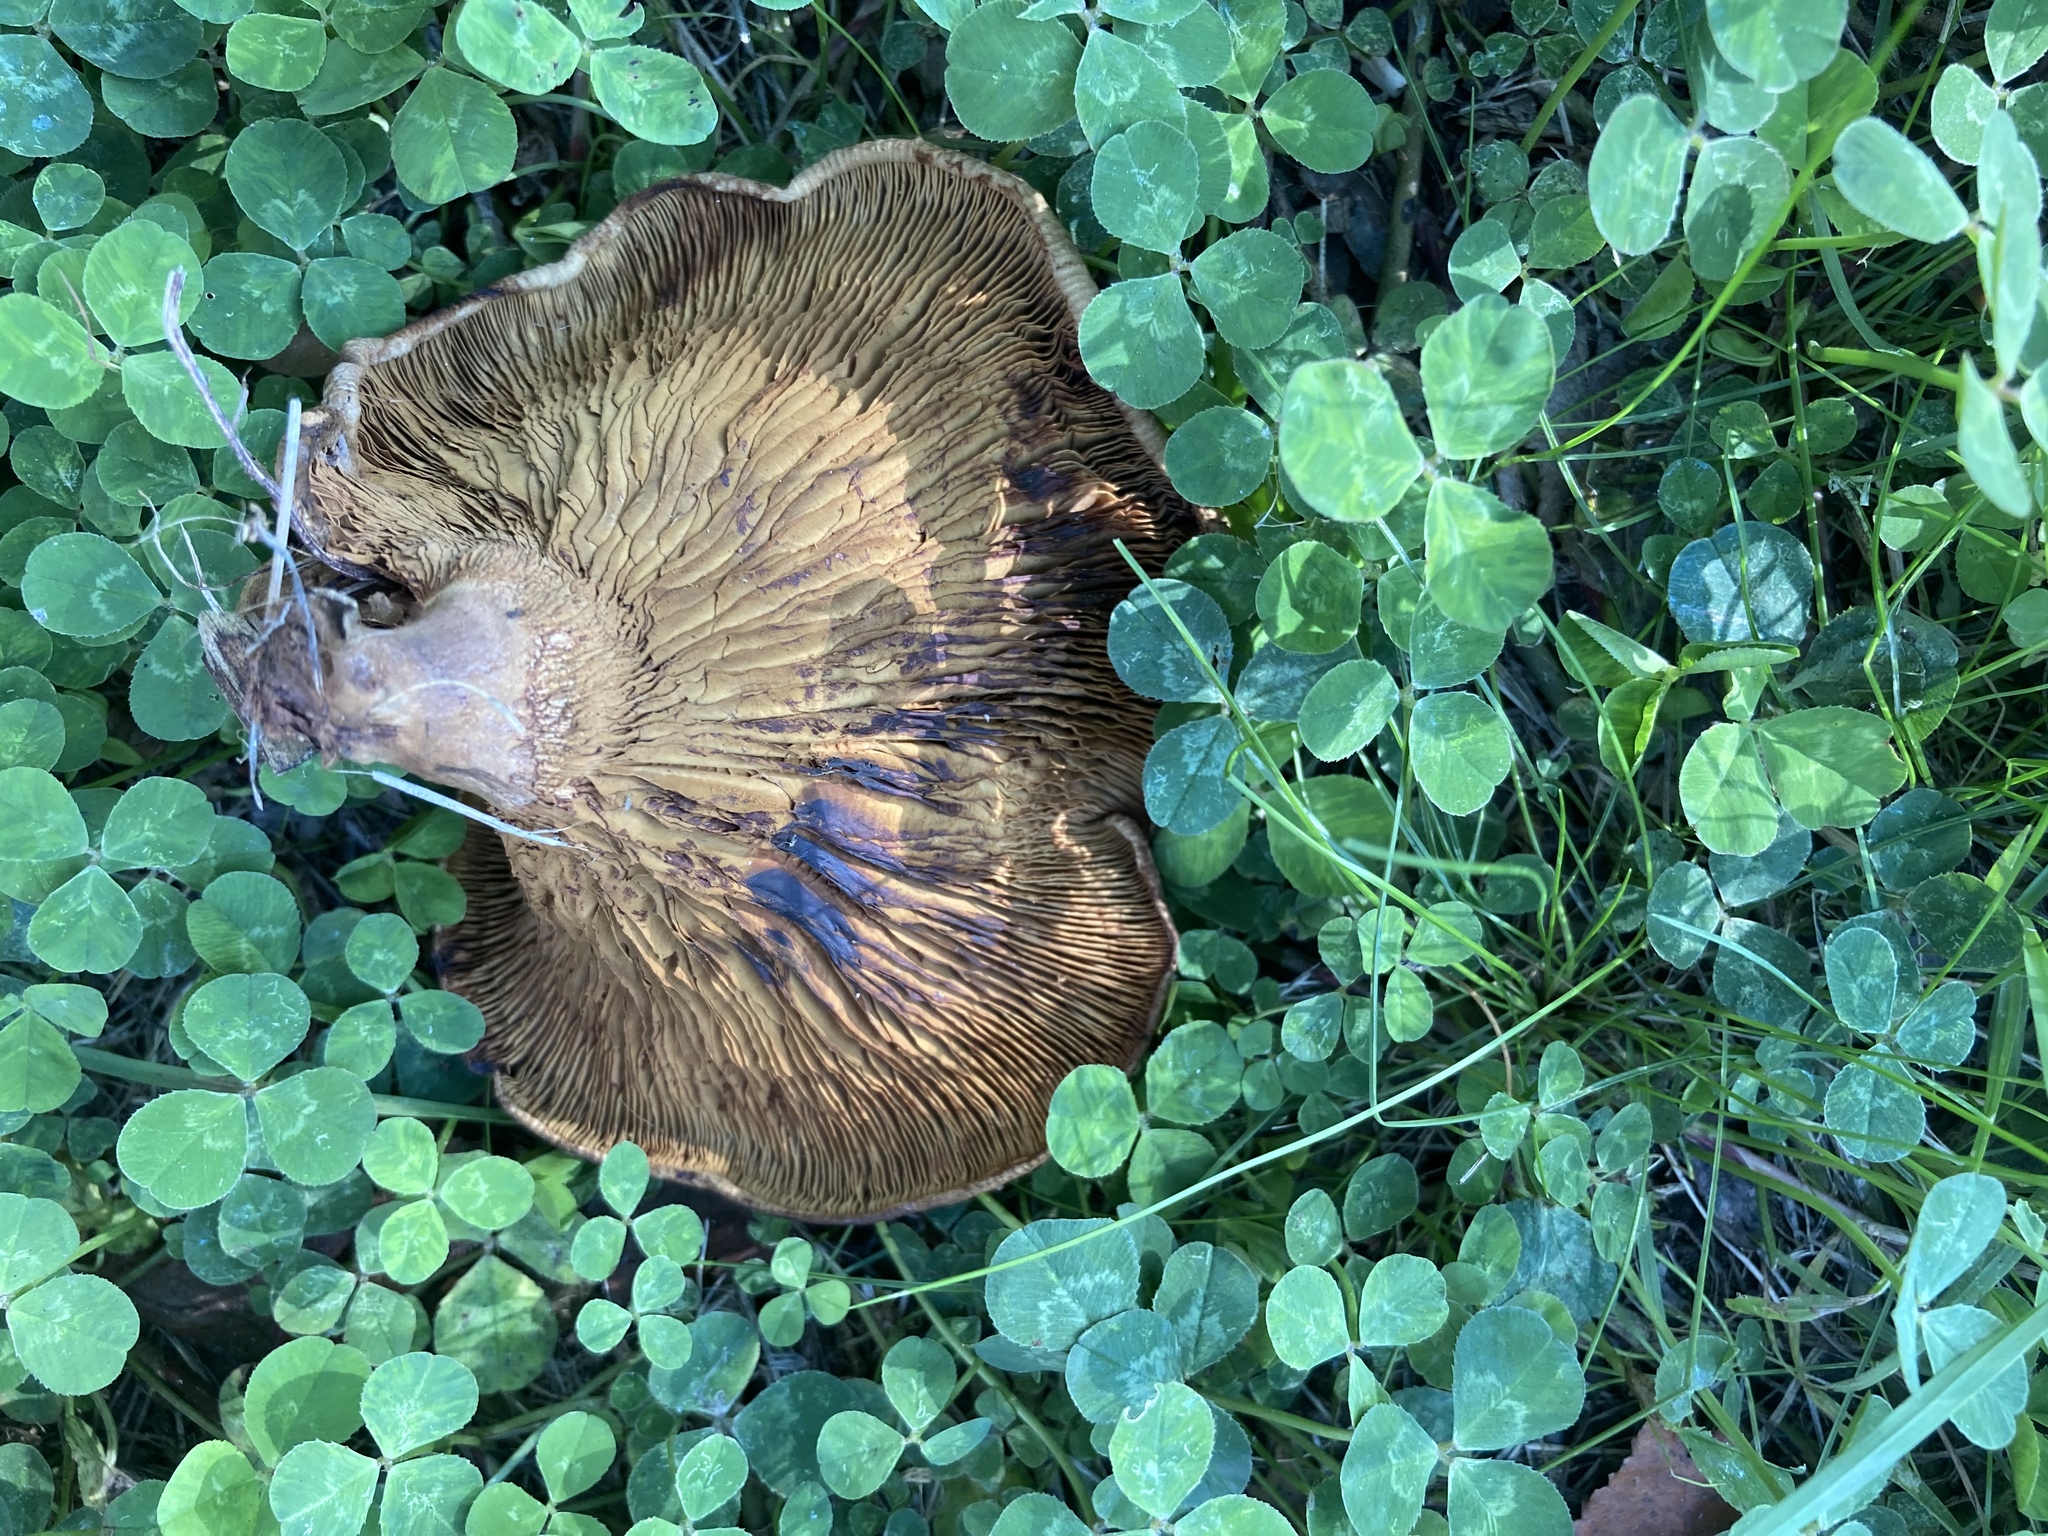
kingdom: Fungi
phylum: Basidiomycota
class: Agaricomycetes
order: Boletales
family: Paxillaceae
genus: Paxillus
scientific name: Paxillus cuprinus
